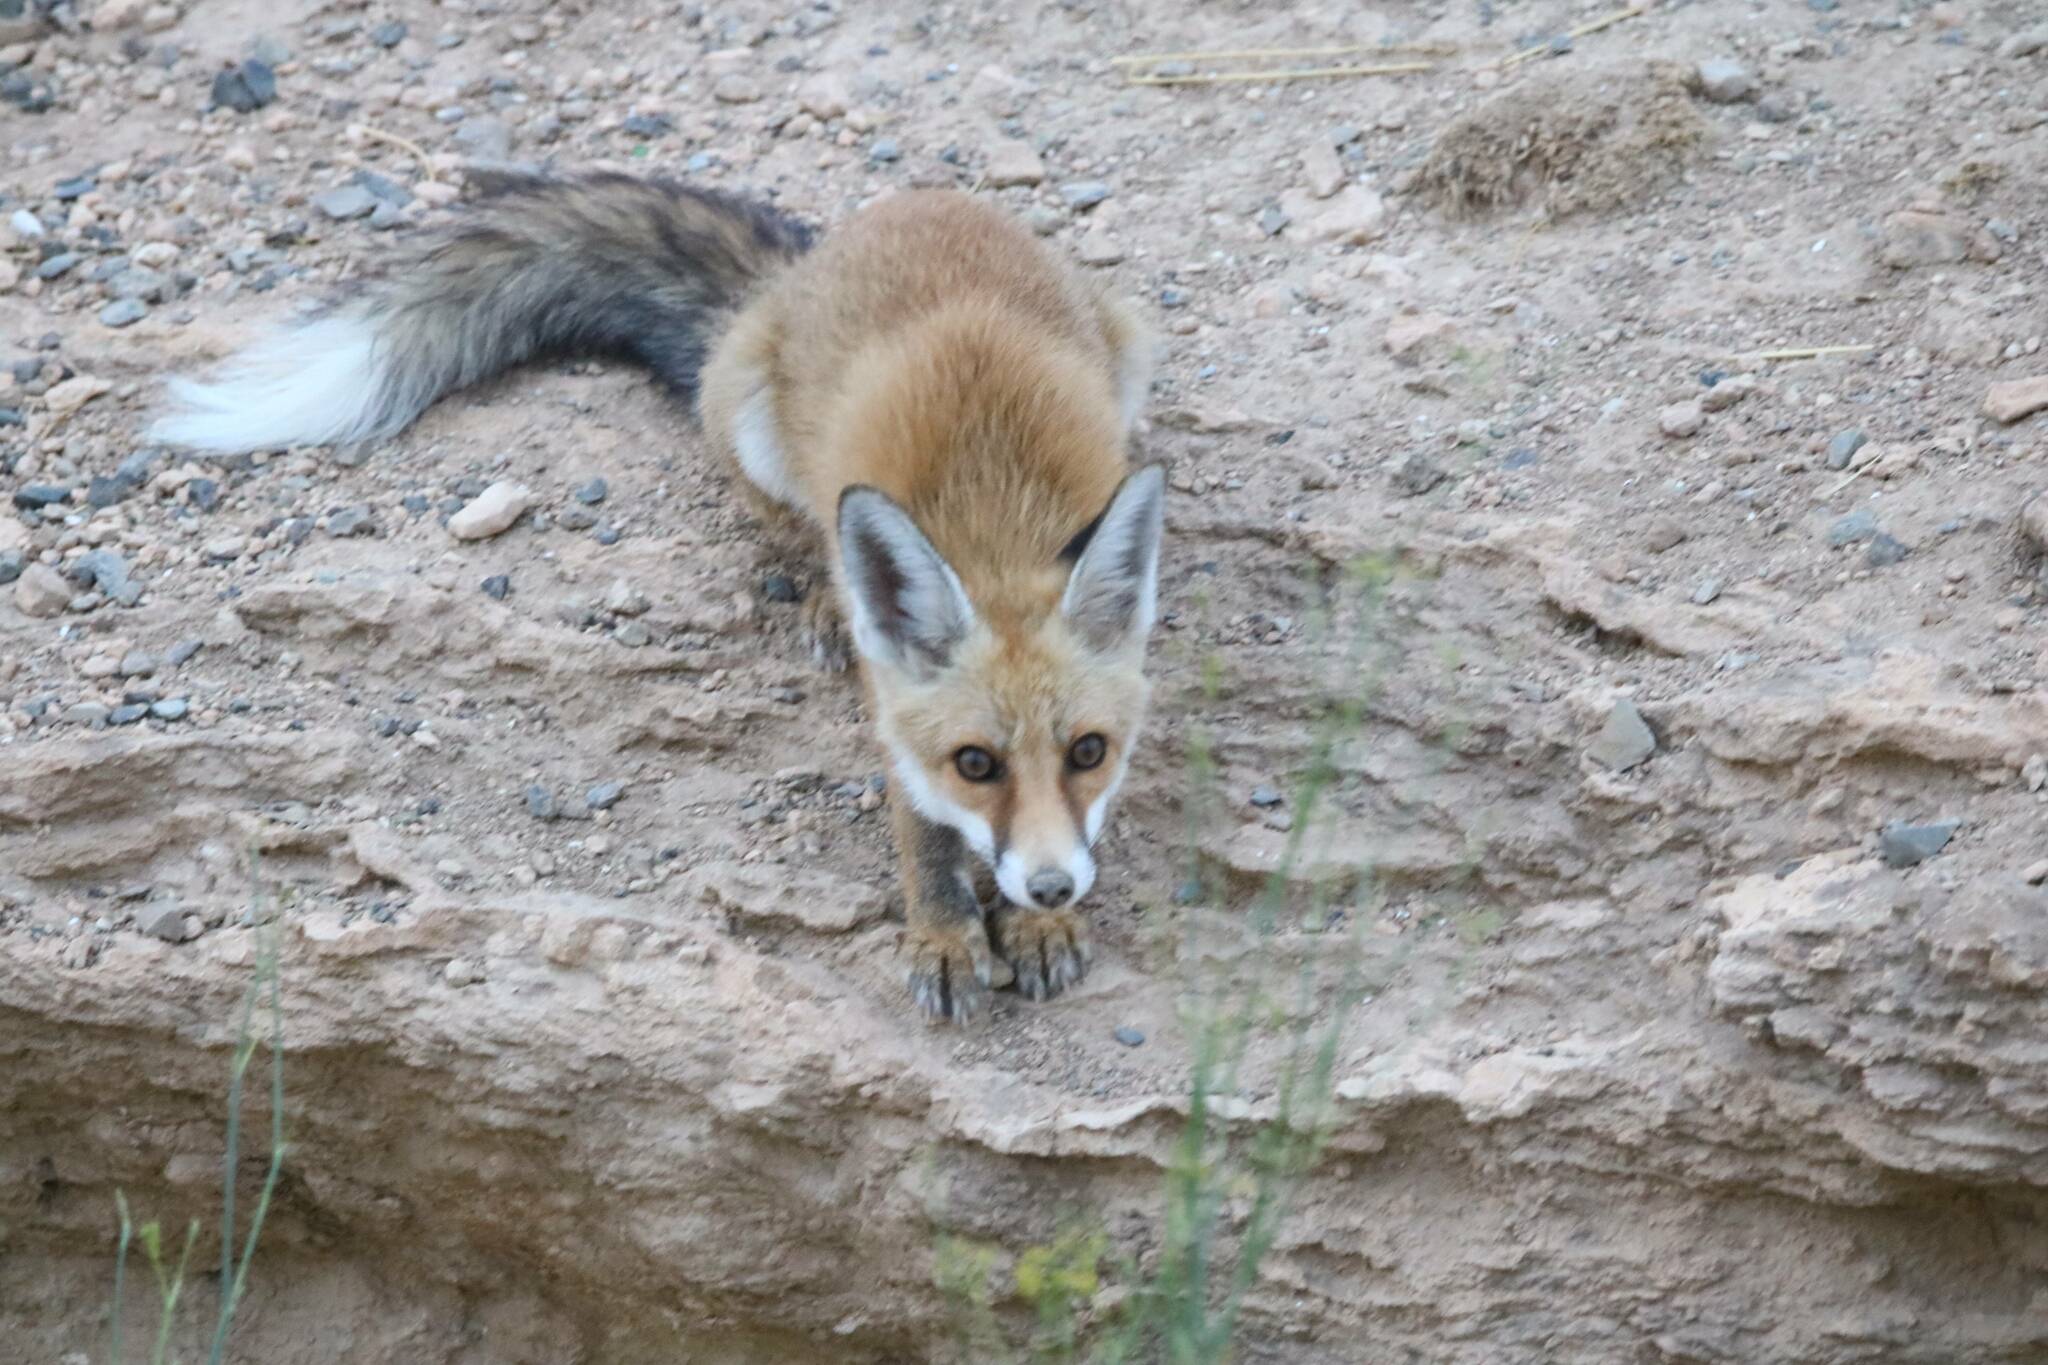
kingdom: Animalia
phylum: Chordata
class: Mammalia
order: Carnivora
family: Canidae
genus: Vulpes
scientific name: Vulpes vulpes
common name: Red fox
